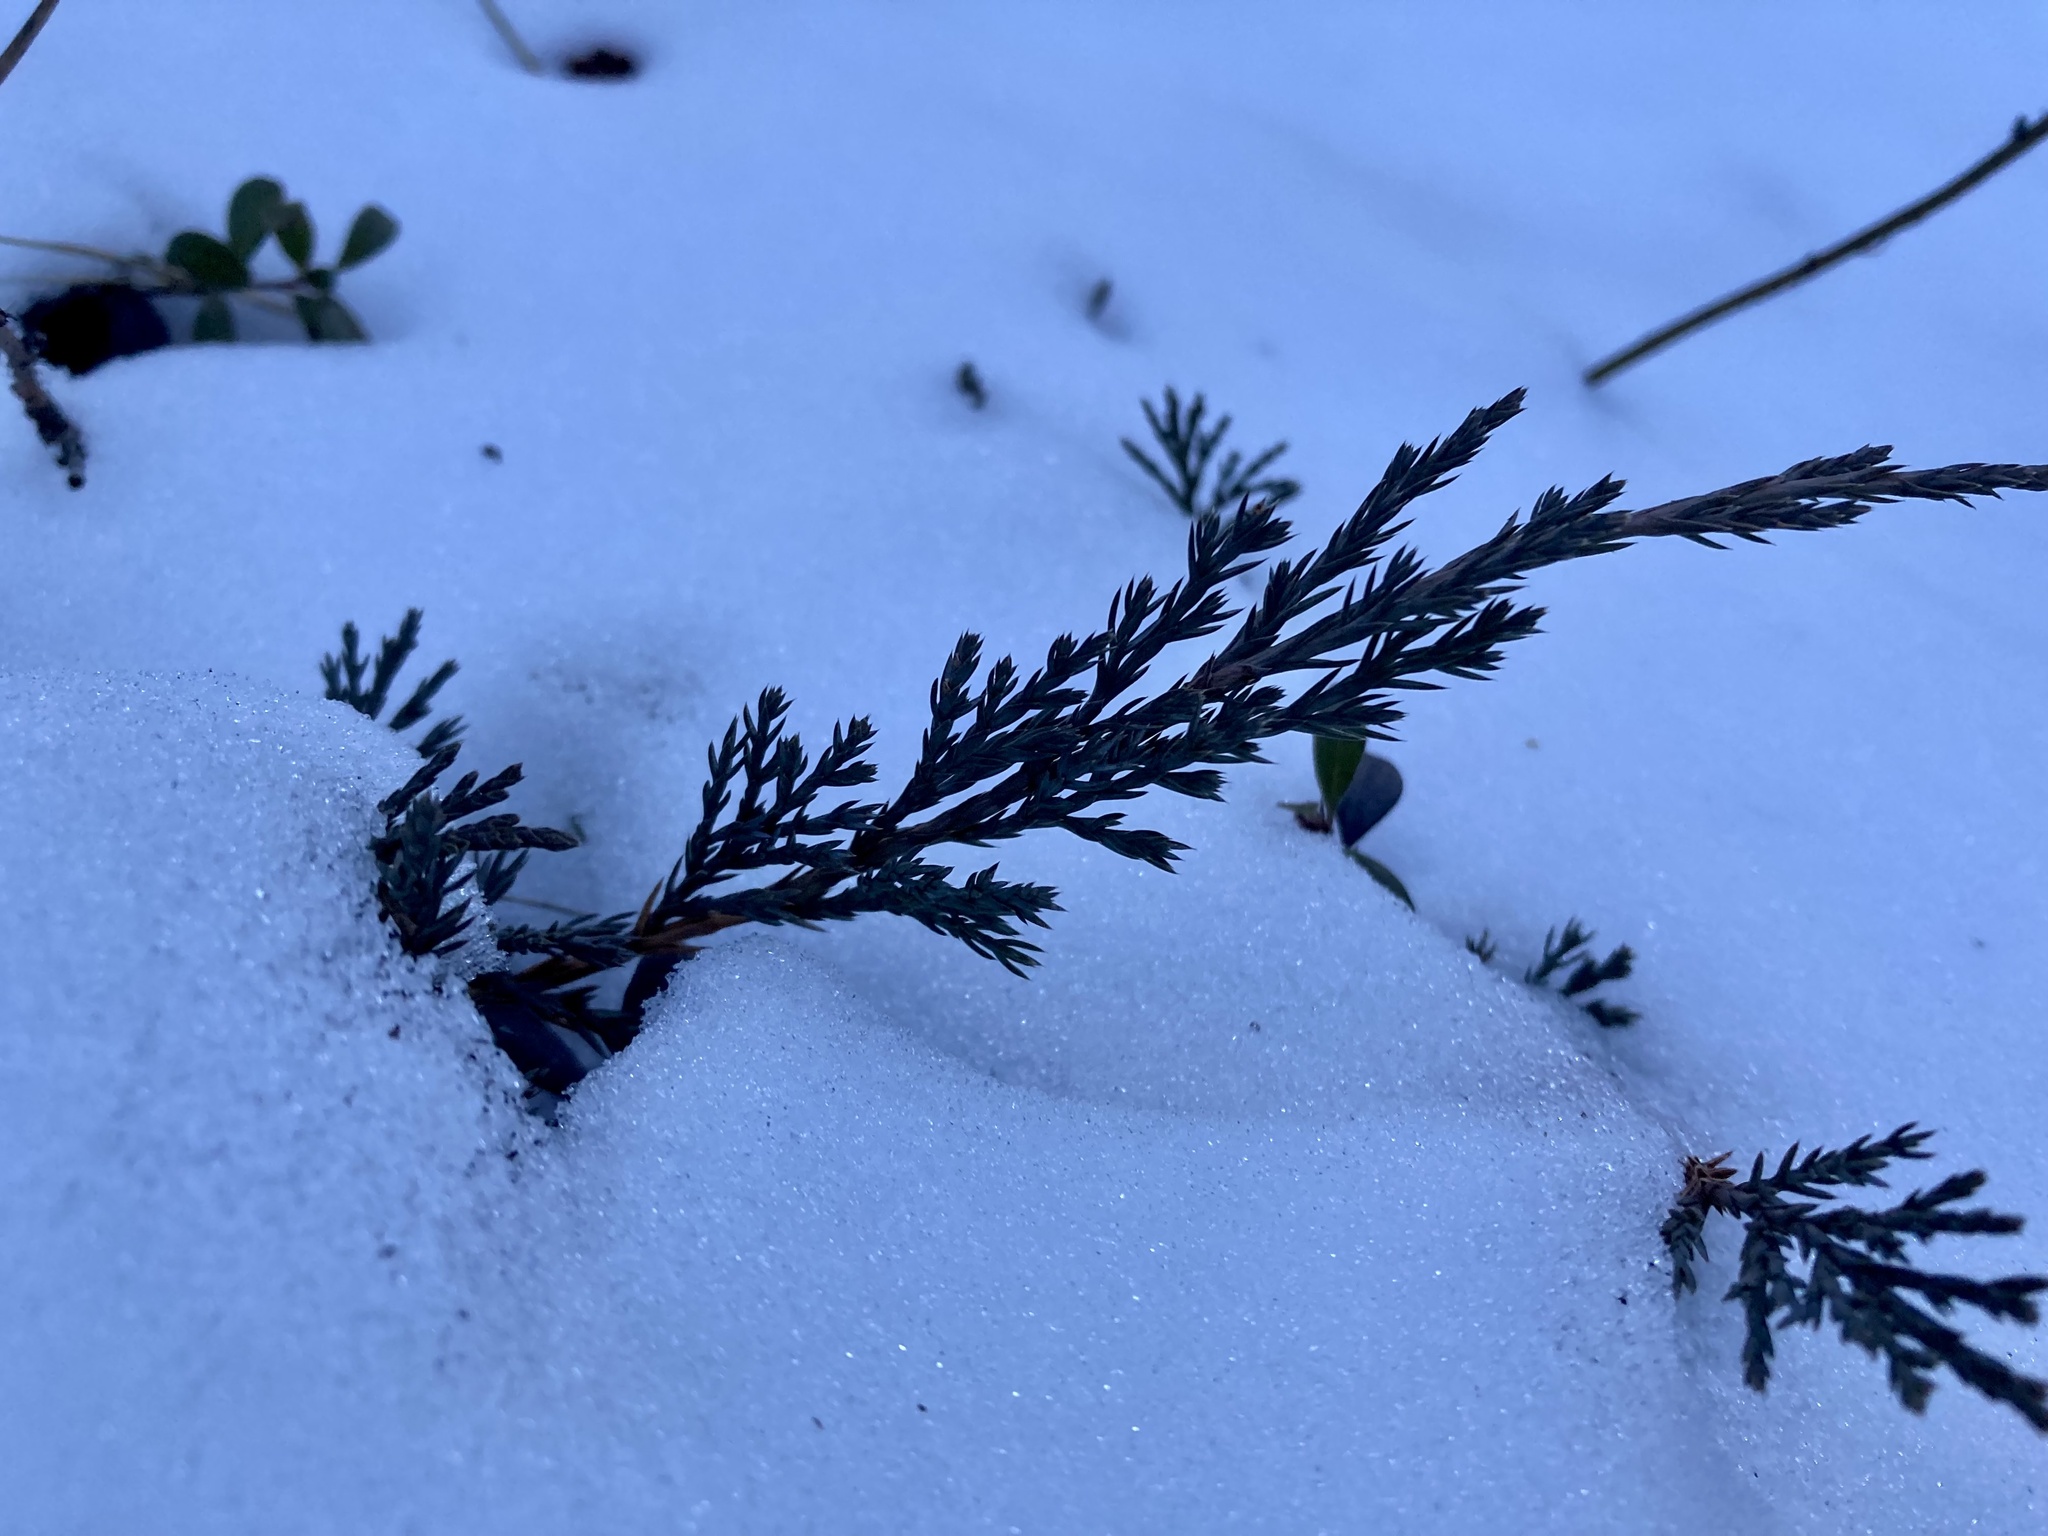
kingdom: Plantae
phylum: Tracheophyta
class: Pinopsida
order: Pinales
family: Cupressaceae
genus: Juniperus
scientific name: Juniperus horizontalis
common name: Creeping juniper
